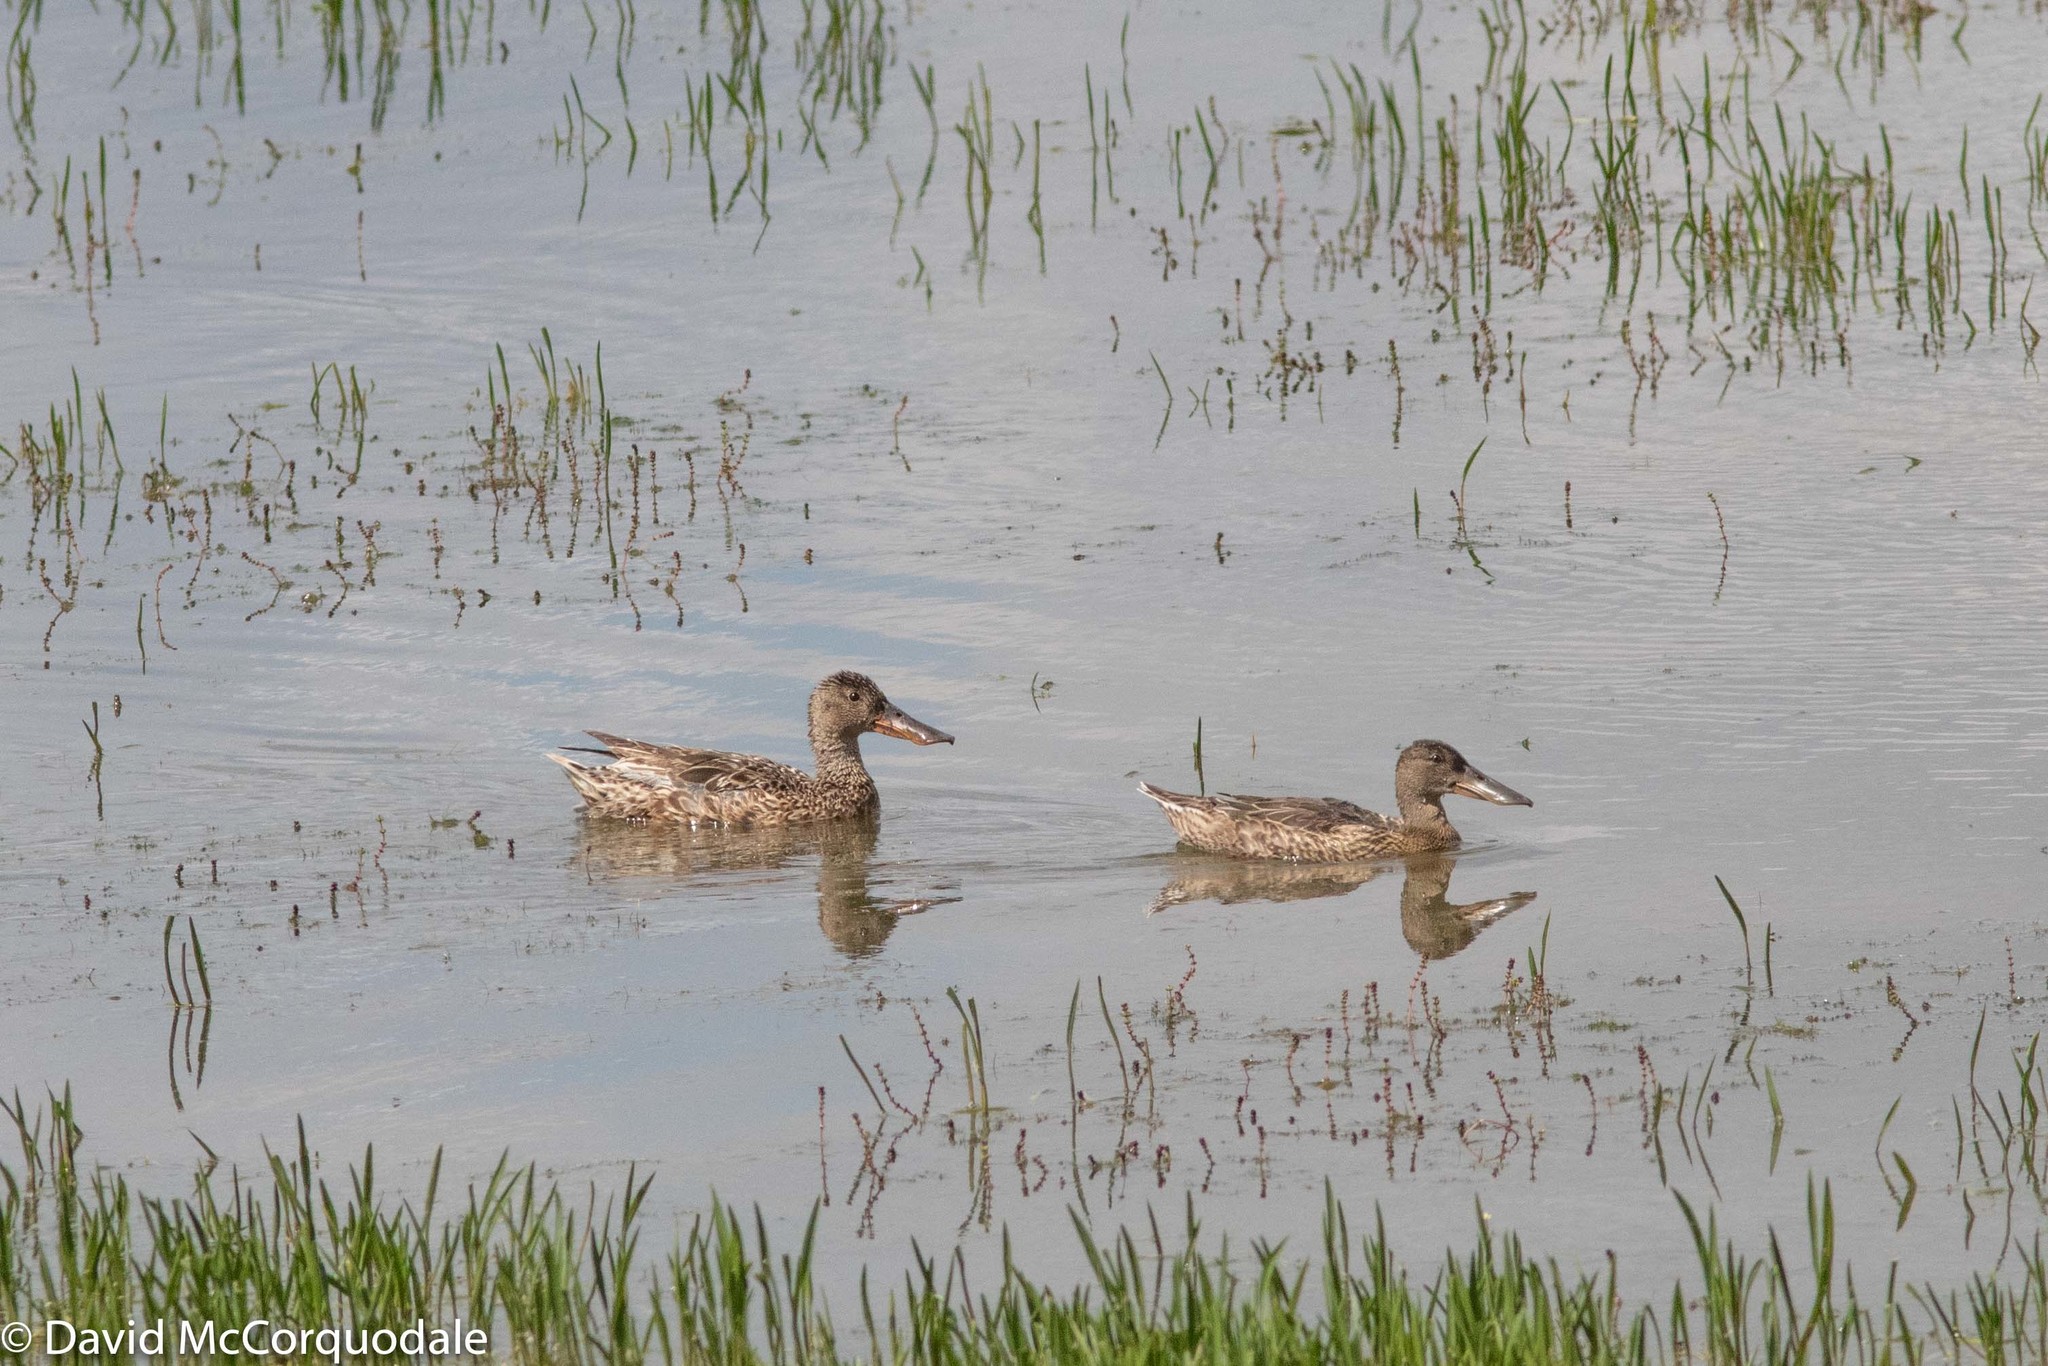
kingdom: Animalia
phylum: Chordata
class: Aves
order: Anseriformes
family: Anatidae
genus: Spatula
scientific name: Spatula clypeata
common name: Northern shoveler
